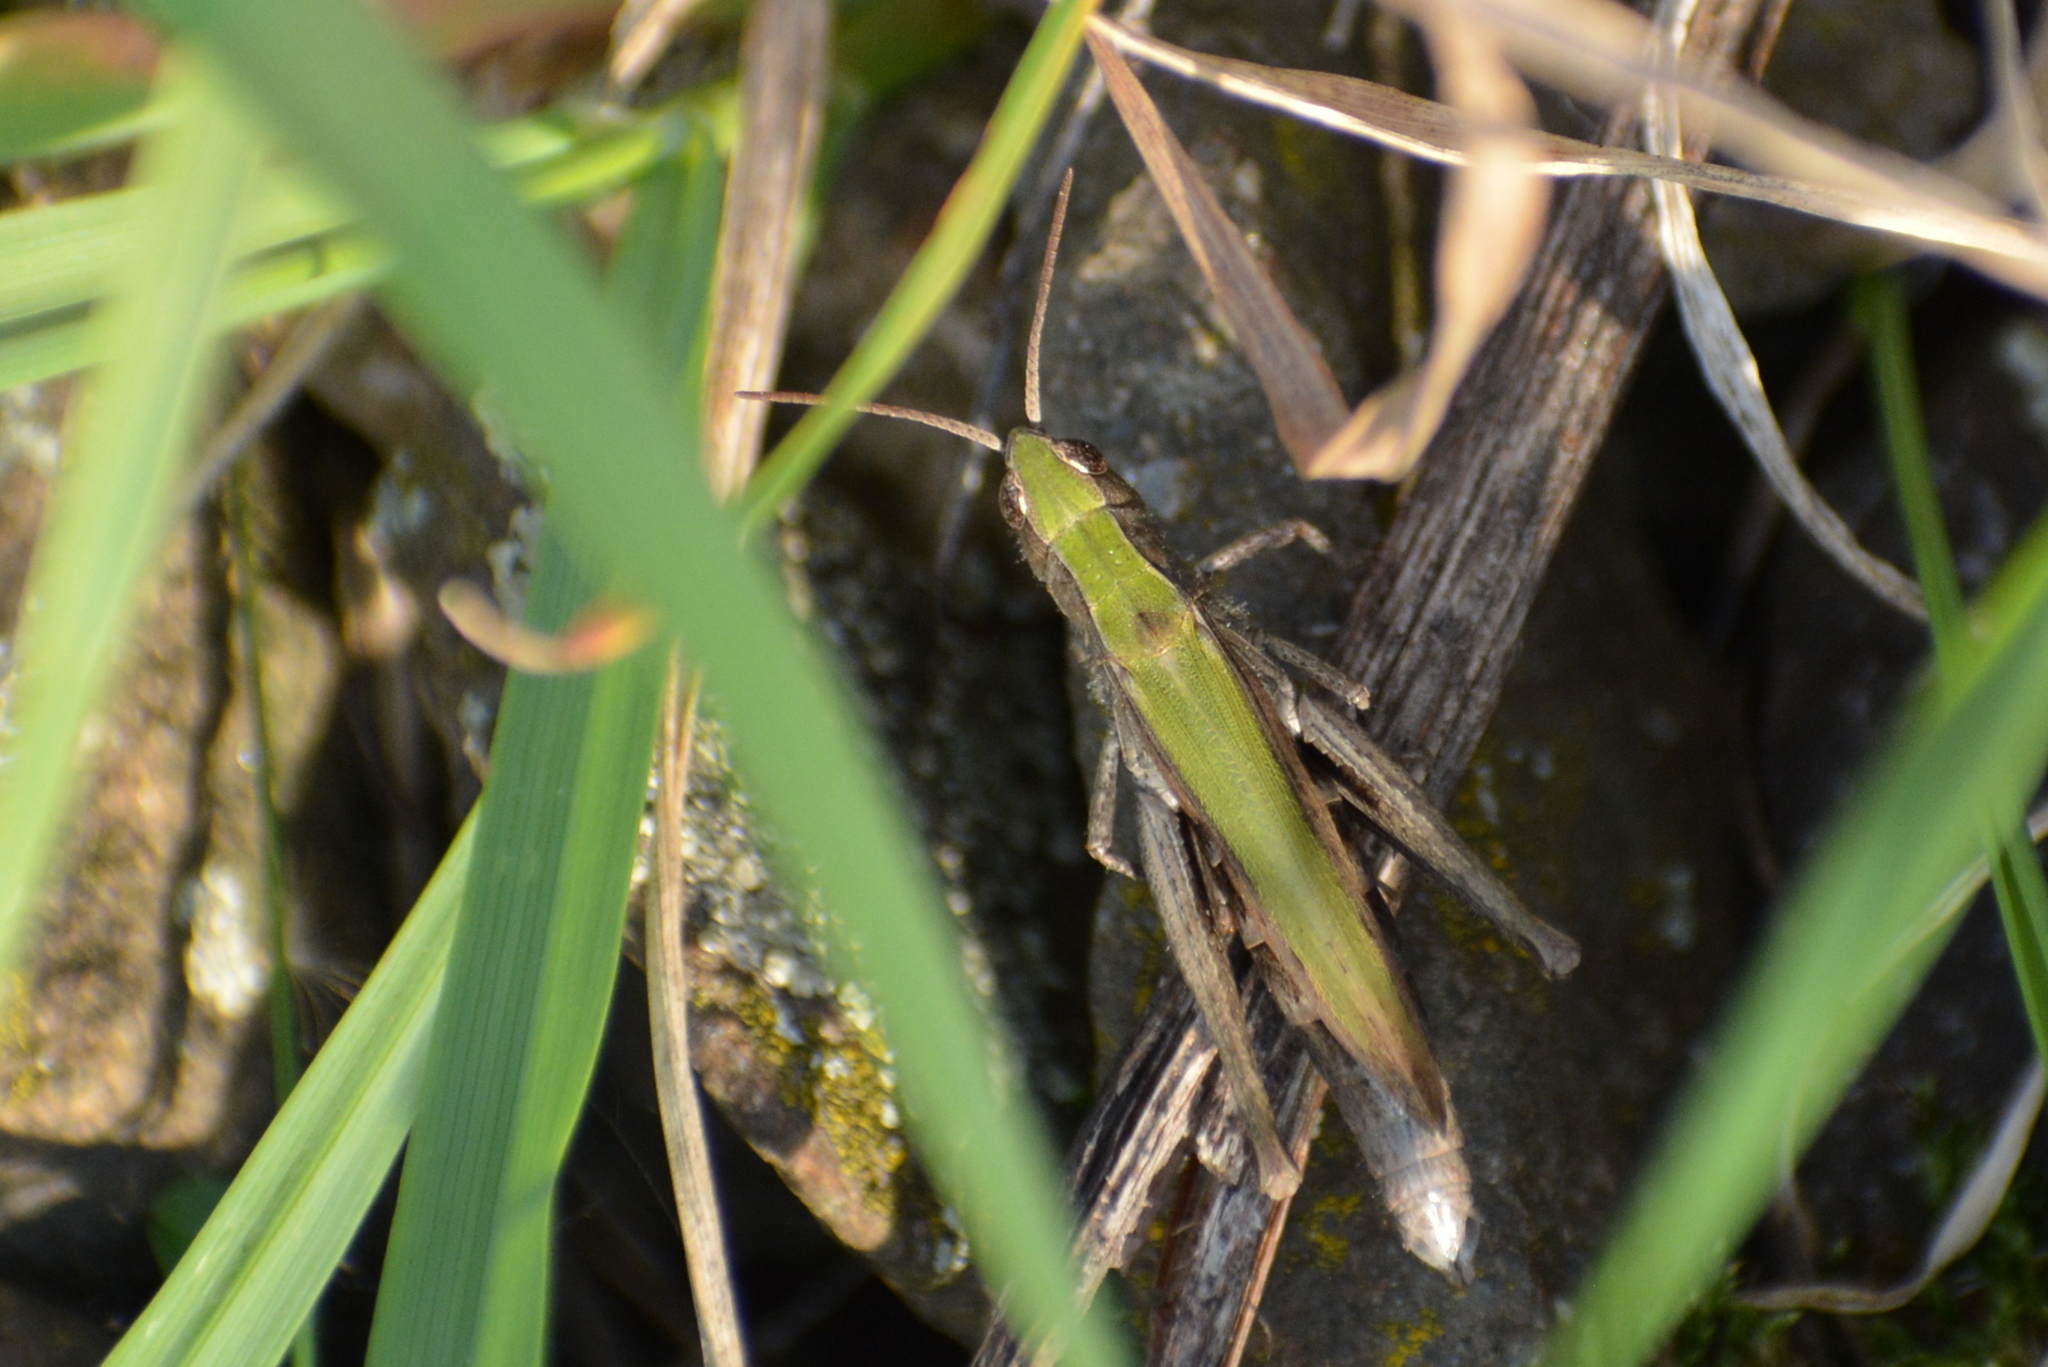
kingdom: Animalia
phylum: Arthropoda
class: Insecta
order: Orthoptera
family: Acrididae
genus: Chorthippus
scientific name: Chorthippus dorsatus
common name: Steppe grasshopper
